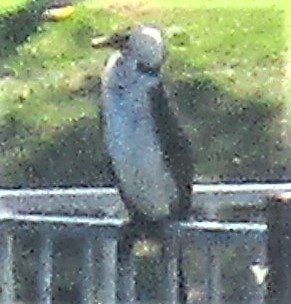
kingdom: Animalia
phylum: Chordata
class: Aves
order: Suliformes
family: Phalacrocoracidae
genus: Microcarbo
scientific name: Microcarbo melanoleucos
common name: Little pied cormorant
